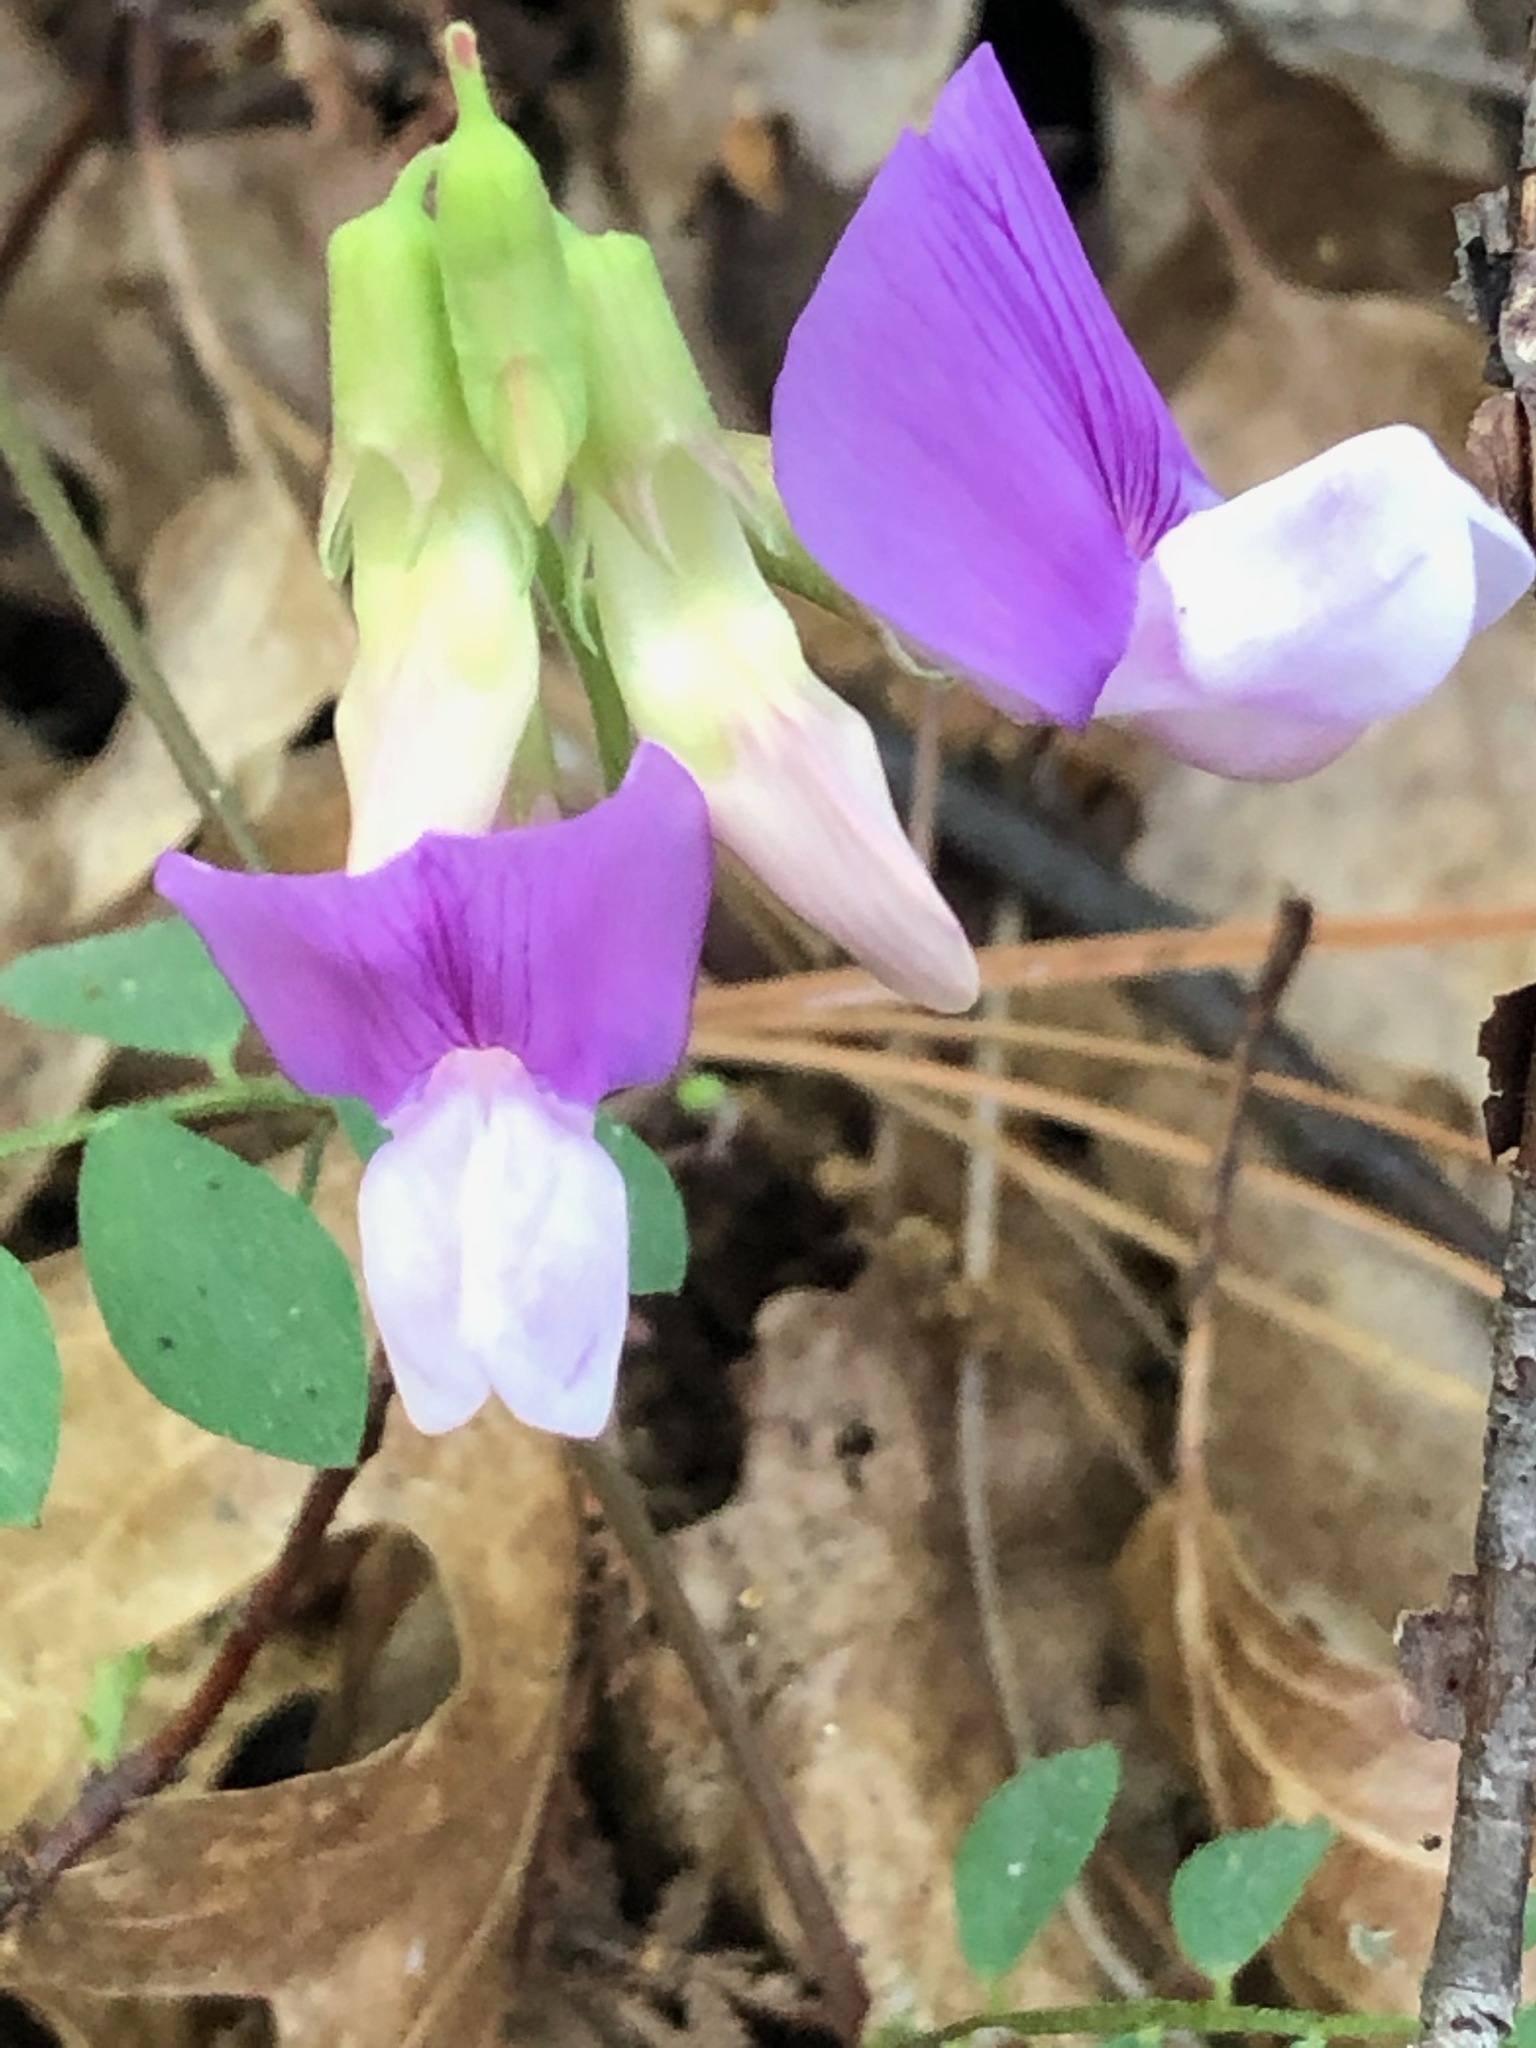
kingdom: Plantae
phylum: Tracheophyta
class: Magnoliopsida
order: Fabales
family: Fabaceae
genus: Lathyrus
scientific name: Lathyrus nevadensis
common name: Sierra nevada peavine
